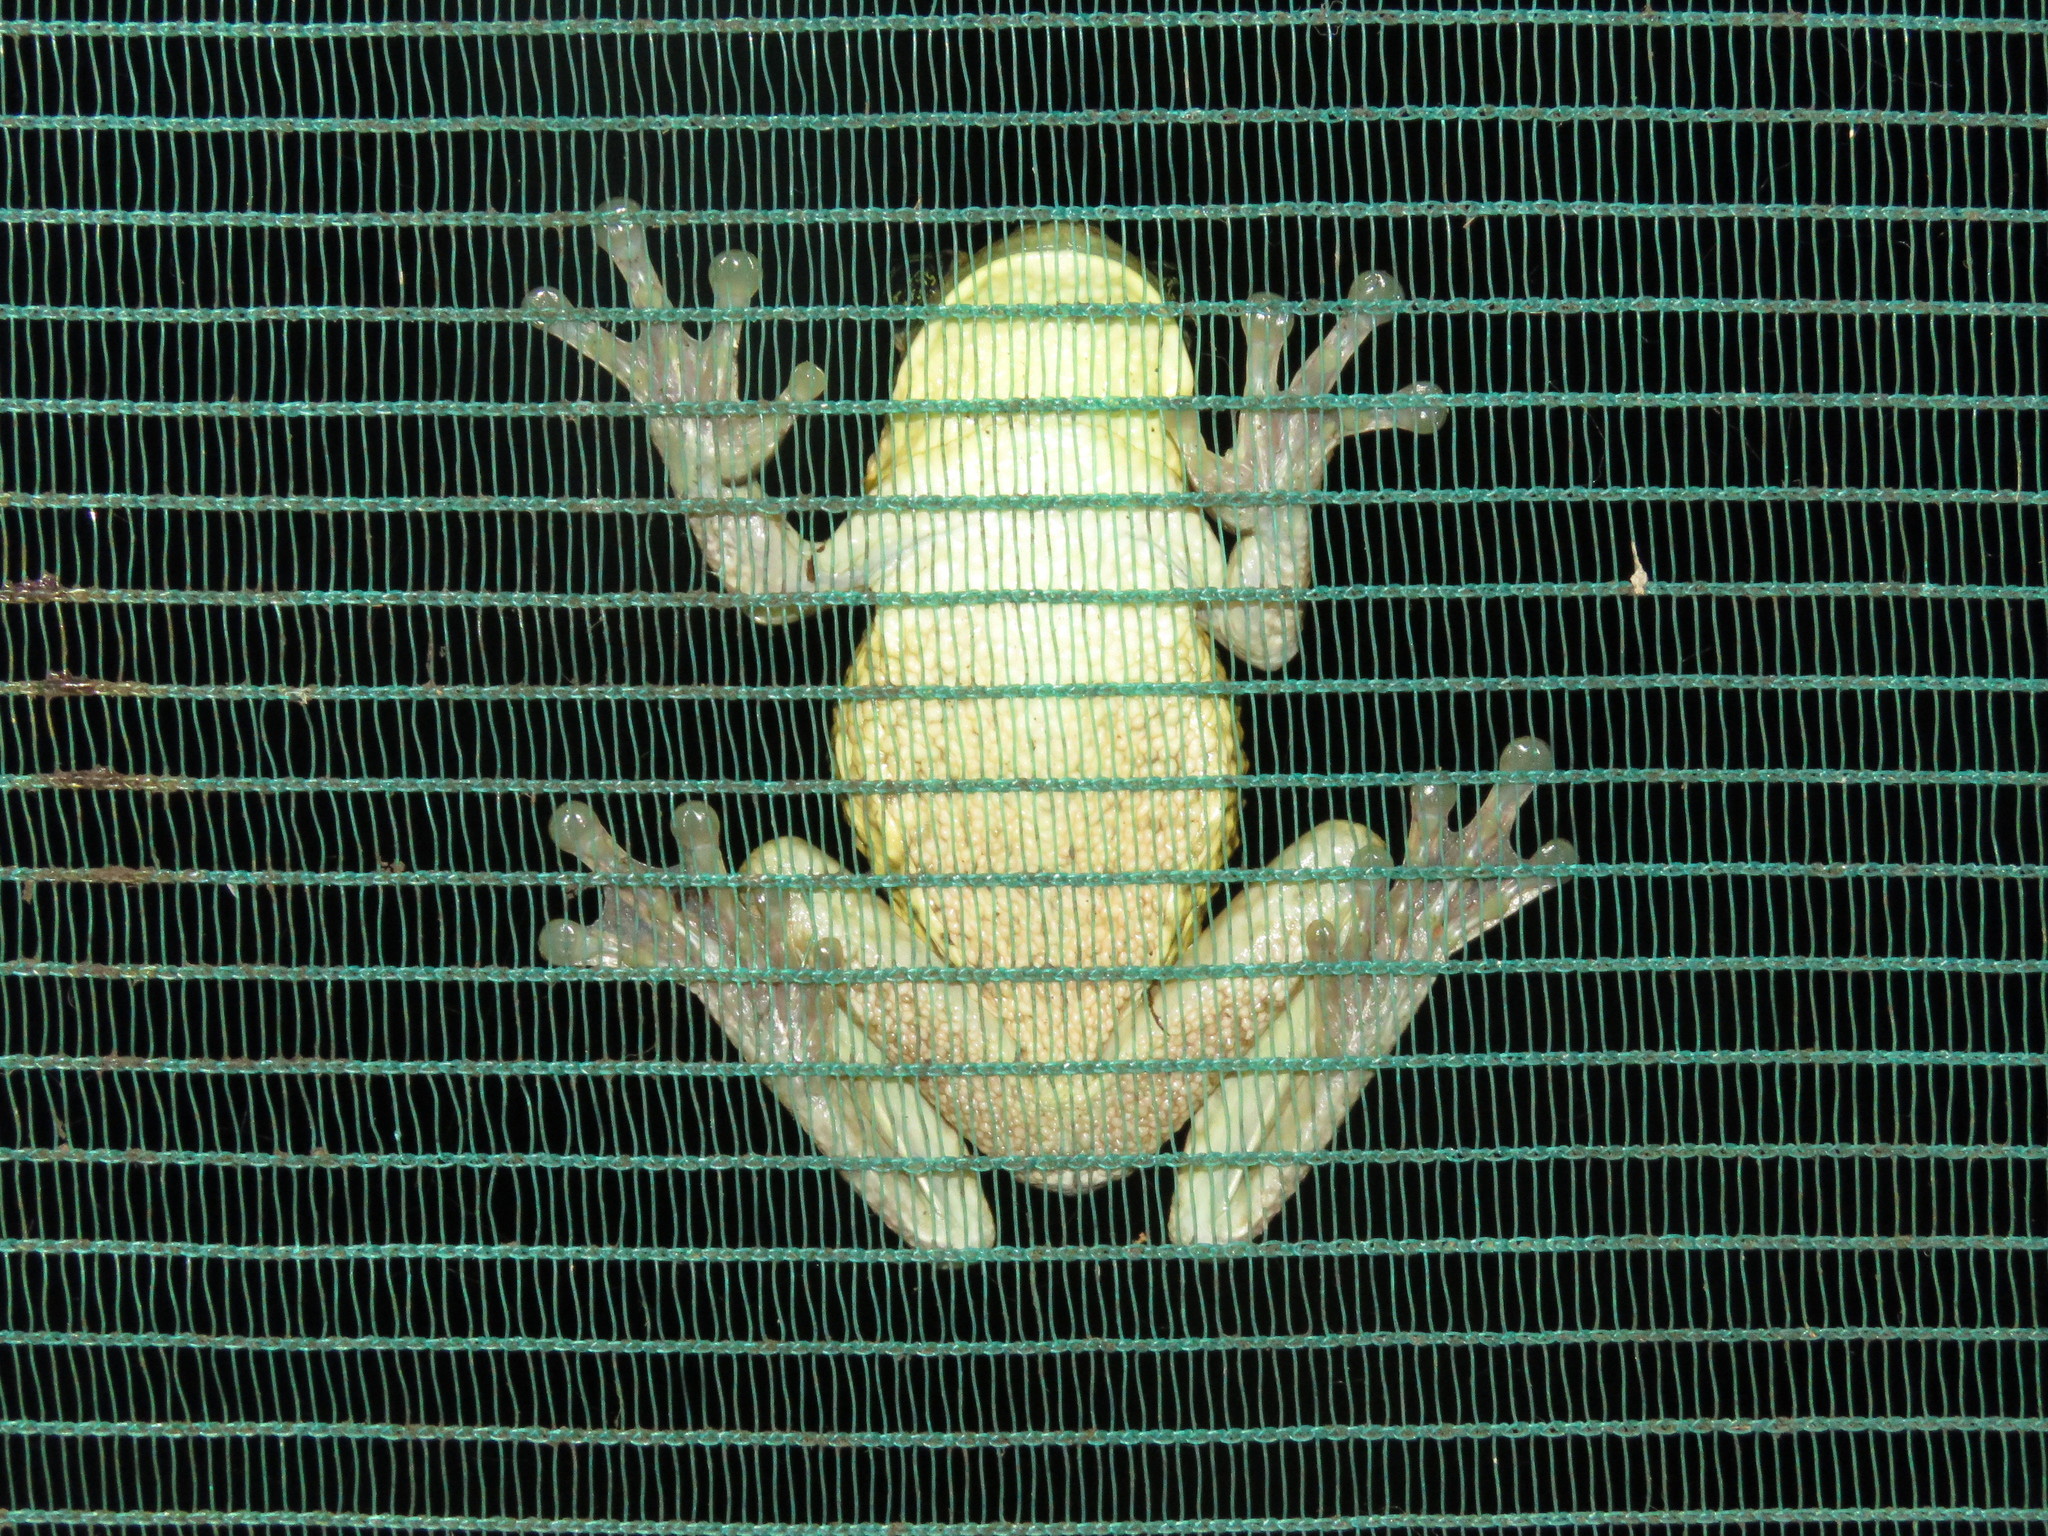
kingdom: Animalia
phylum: Chordata
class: Amphibia
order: Anura
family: Hylidae
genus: Trachycephalus
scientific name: Trachycephalus typhonius
